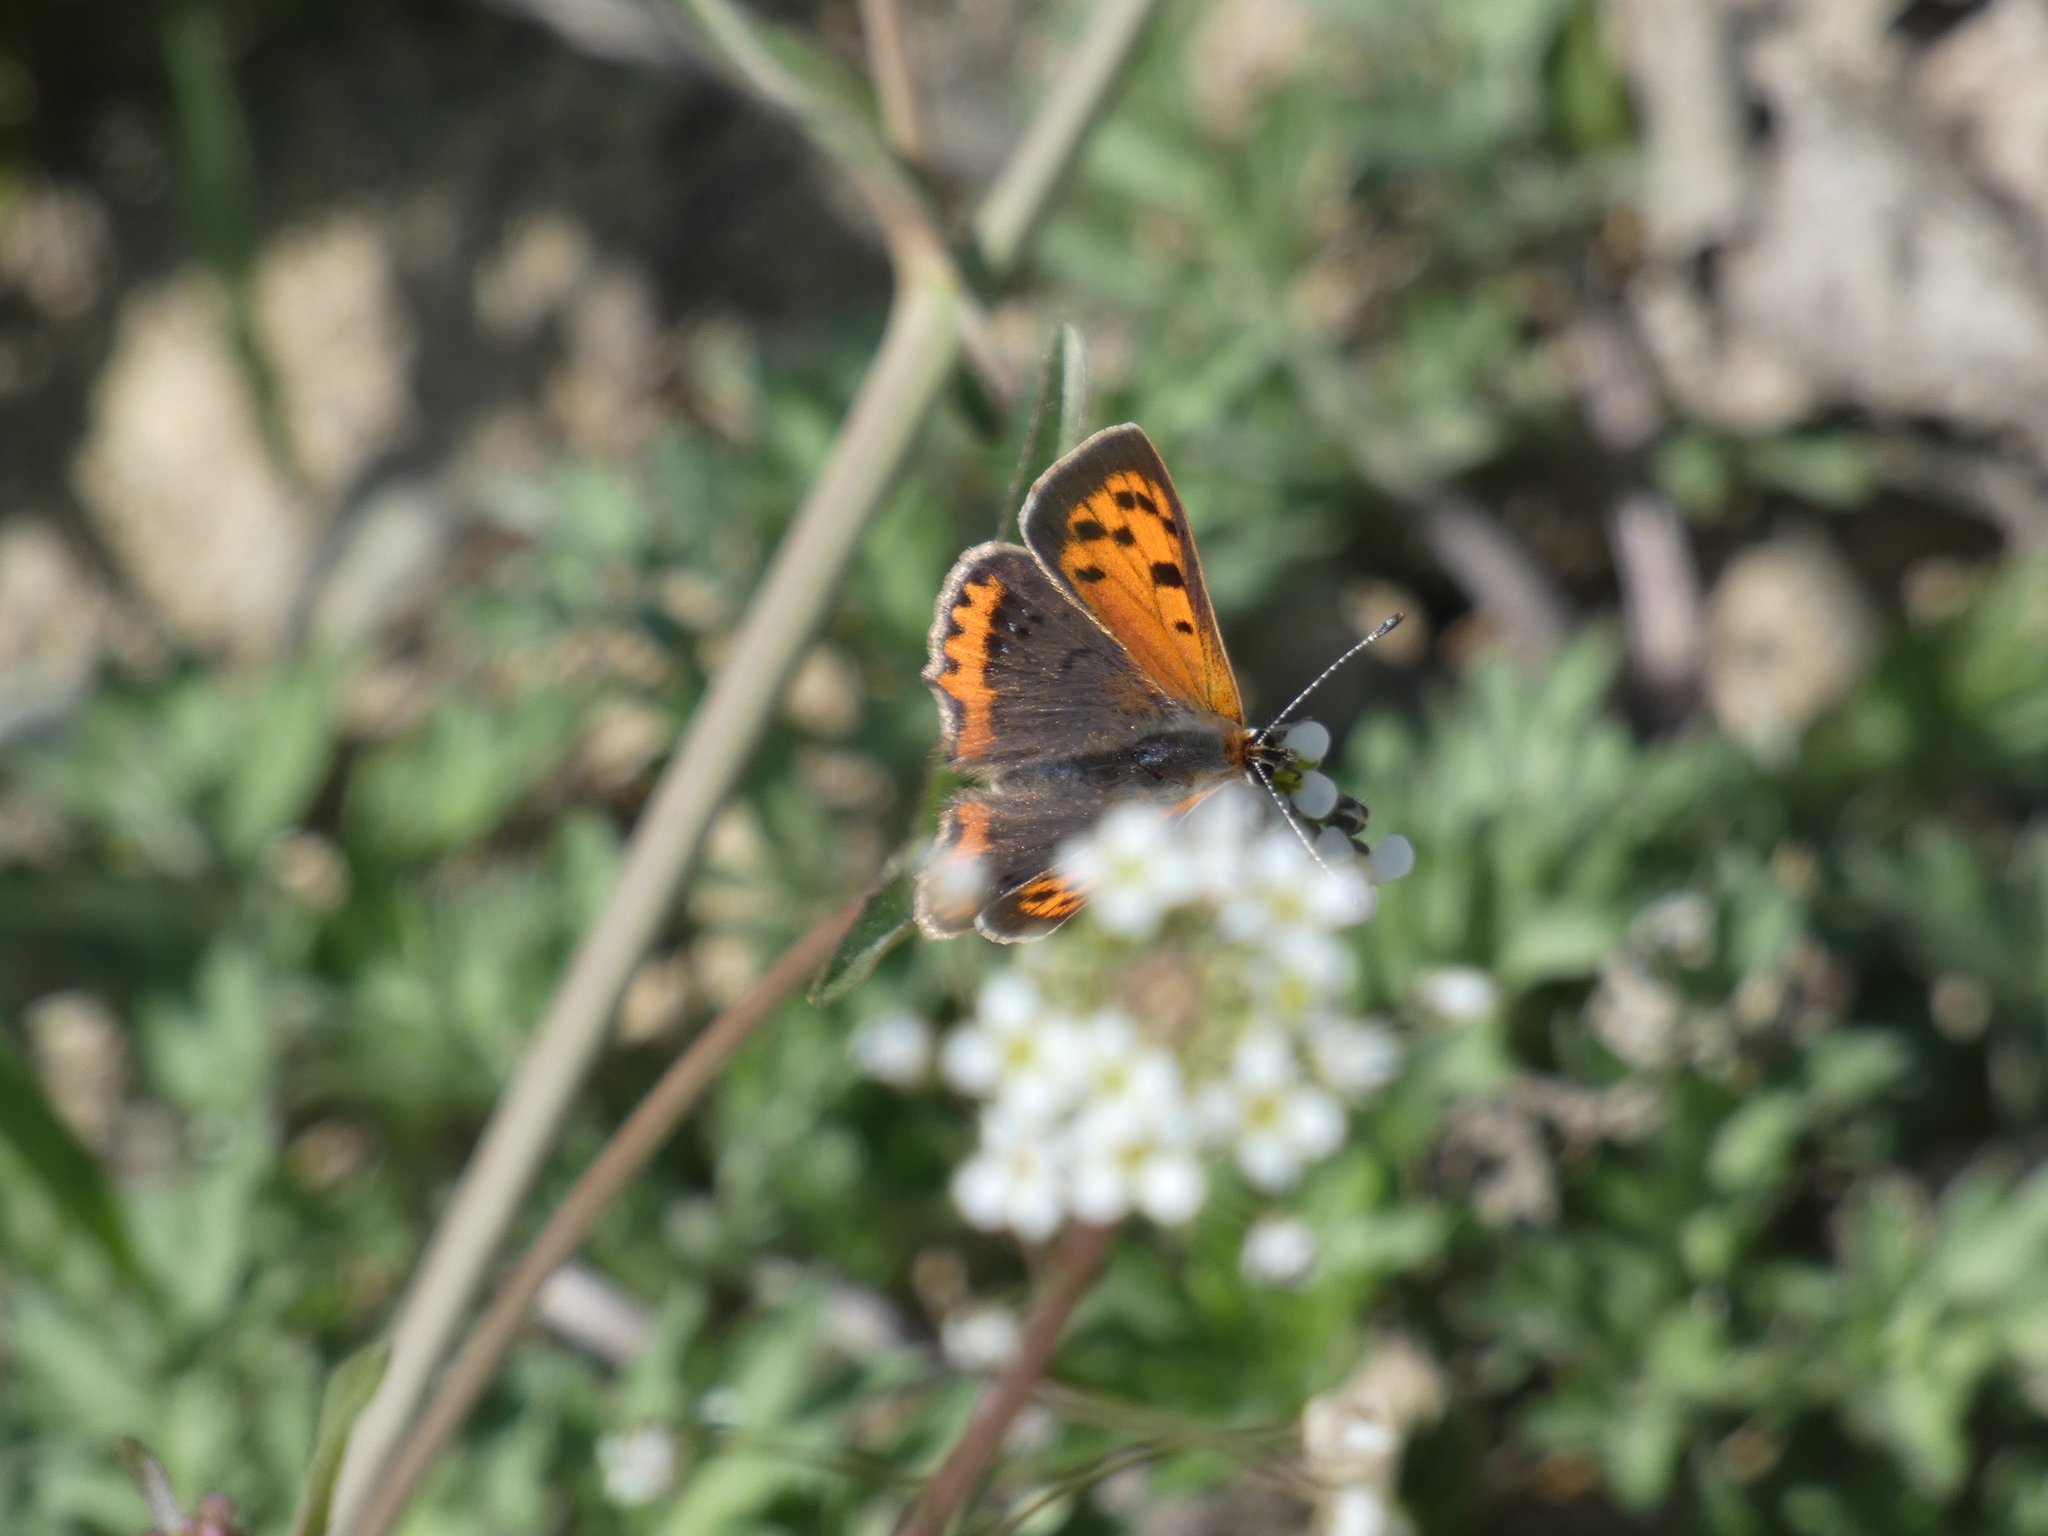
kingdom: Animalia
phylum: Arthropoda
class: Insecta
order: Lepidoptera
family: Lycaenidae
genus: Lycaena
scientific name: Lycaena phlaeas
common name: Small copper
